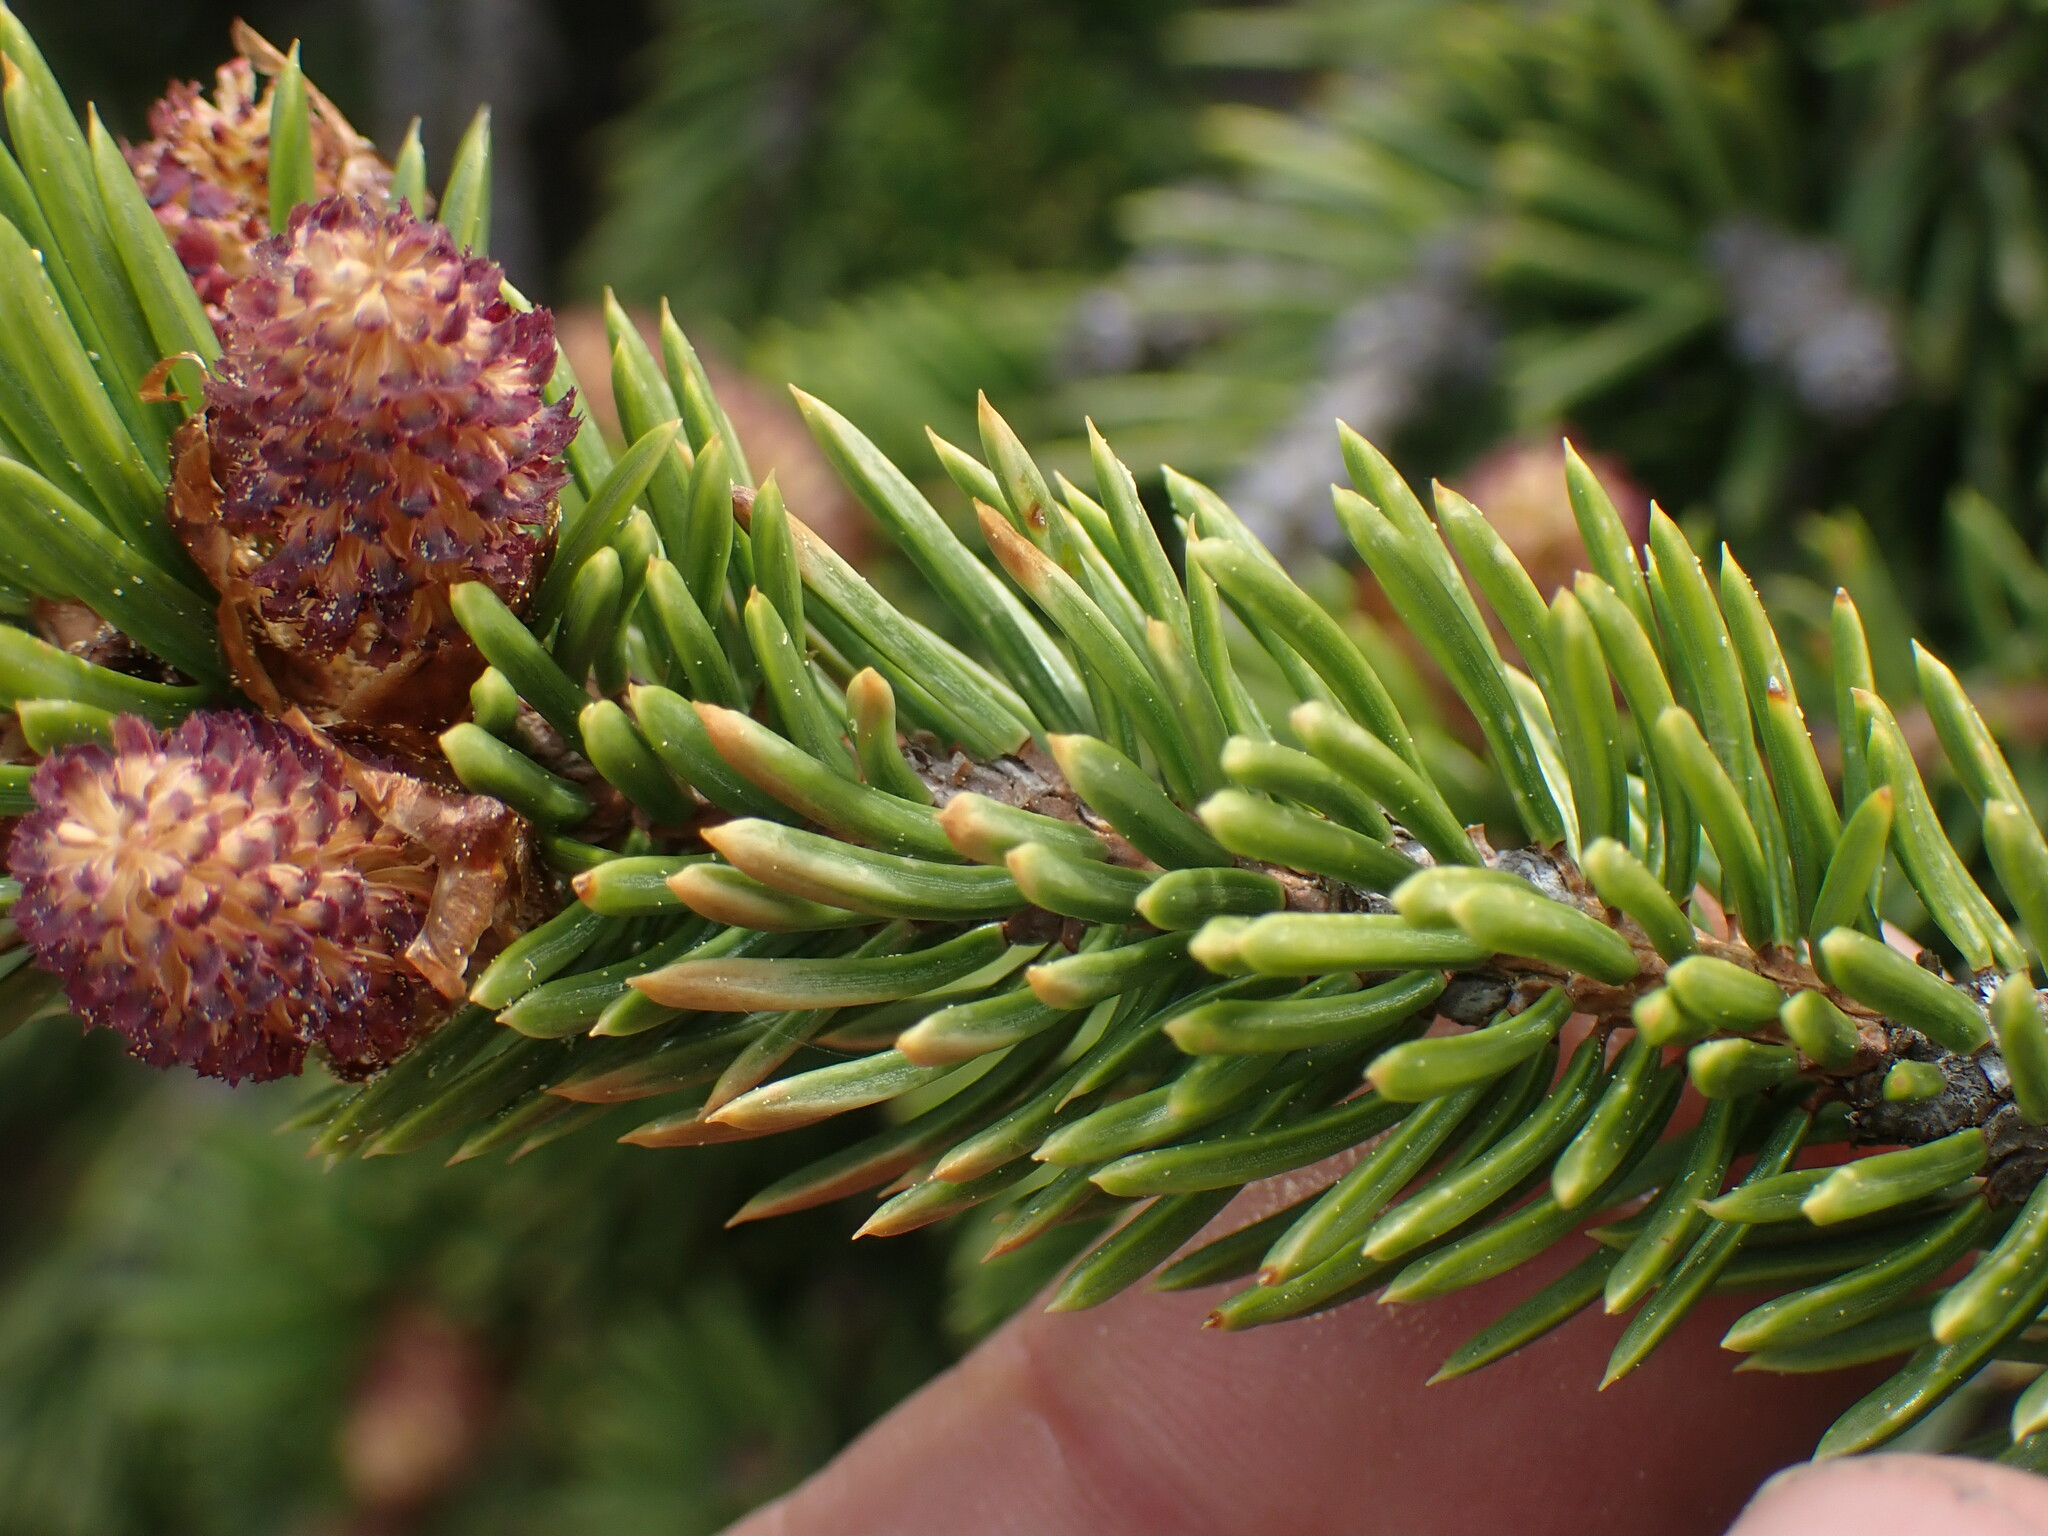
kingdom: Plantae
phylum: Tracheophyta
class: Pinopsida
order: Pinales
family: Pinaceae
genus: Picea
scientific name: Picea engelmannii
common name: Engelmann spruce
